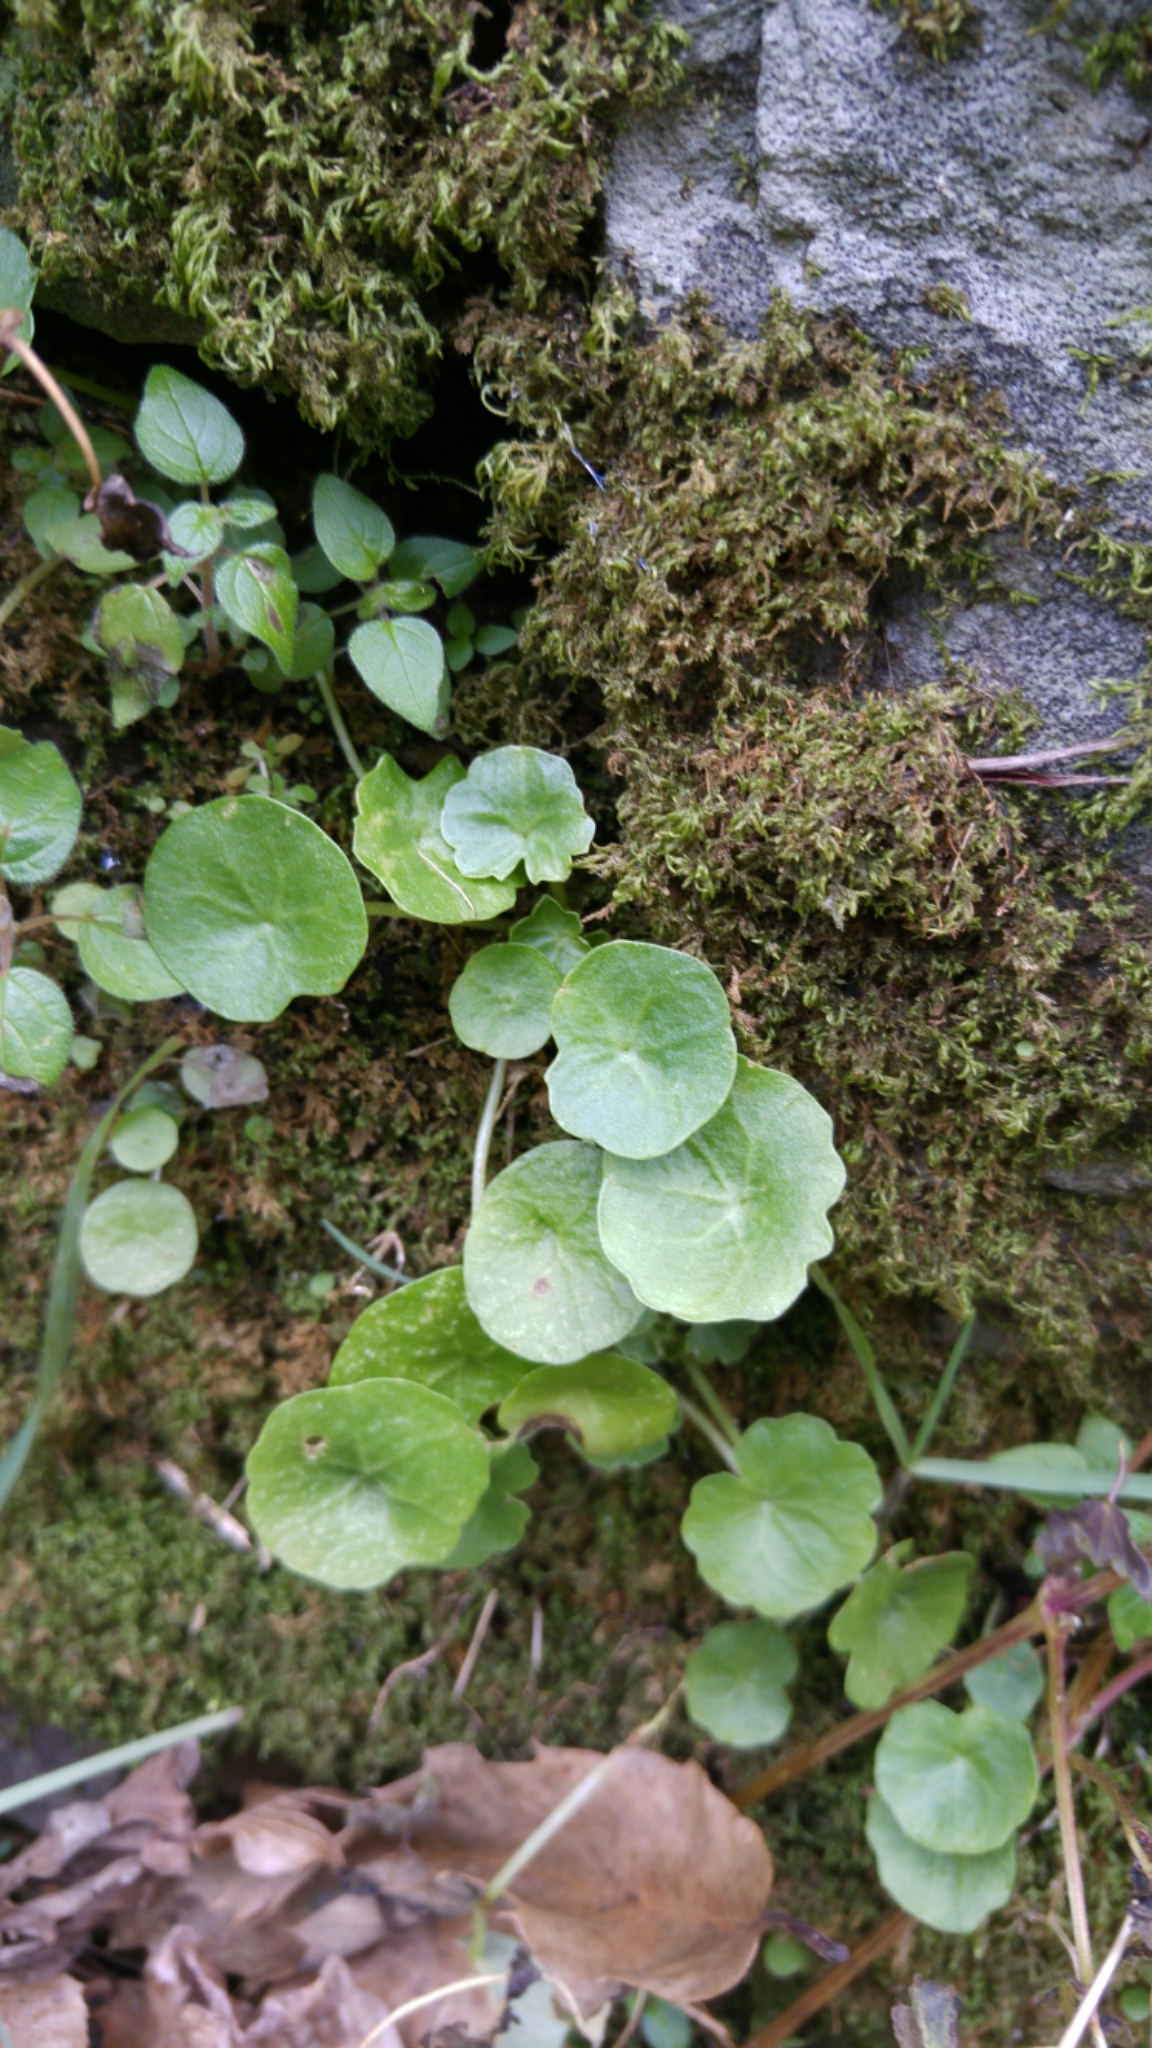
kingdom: Plantae
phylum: Tracheophyta
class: Magnoliopsida
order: Saxifragales
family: Crassulaceae
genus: Umbilicus
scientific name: Umbilicus rupestris
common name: Navelwort
